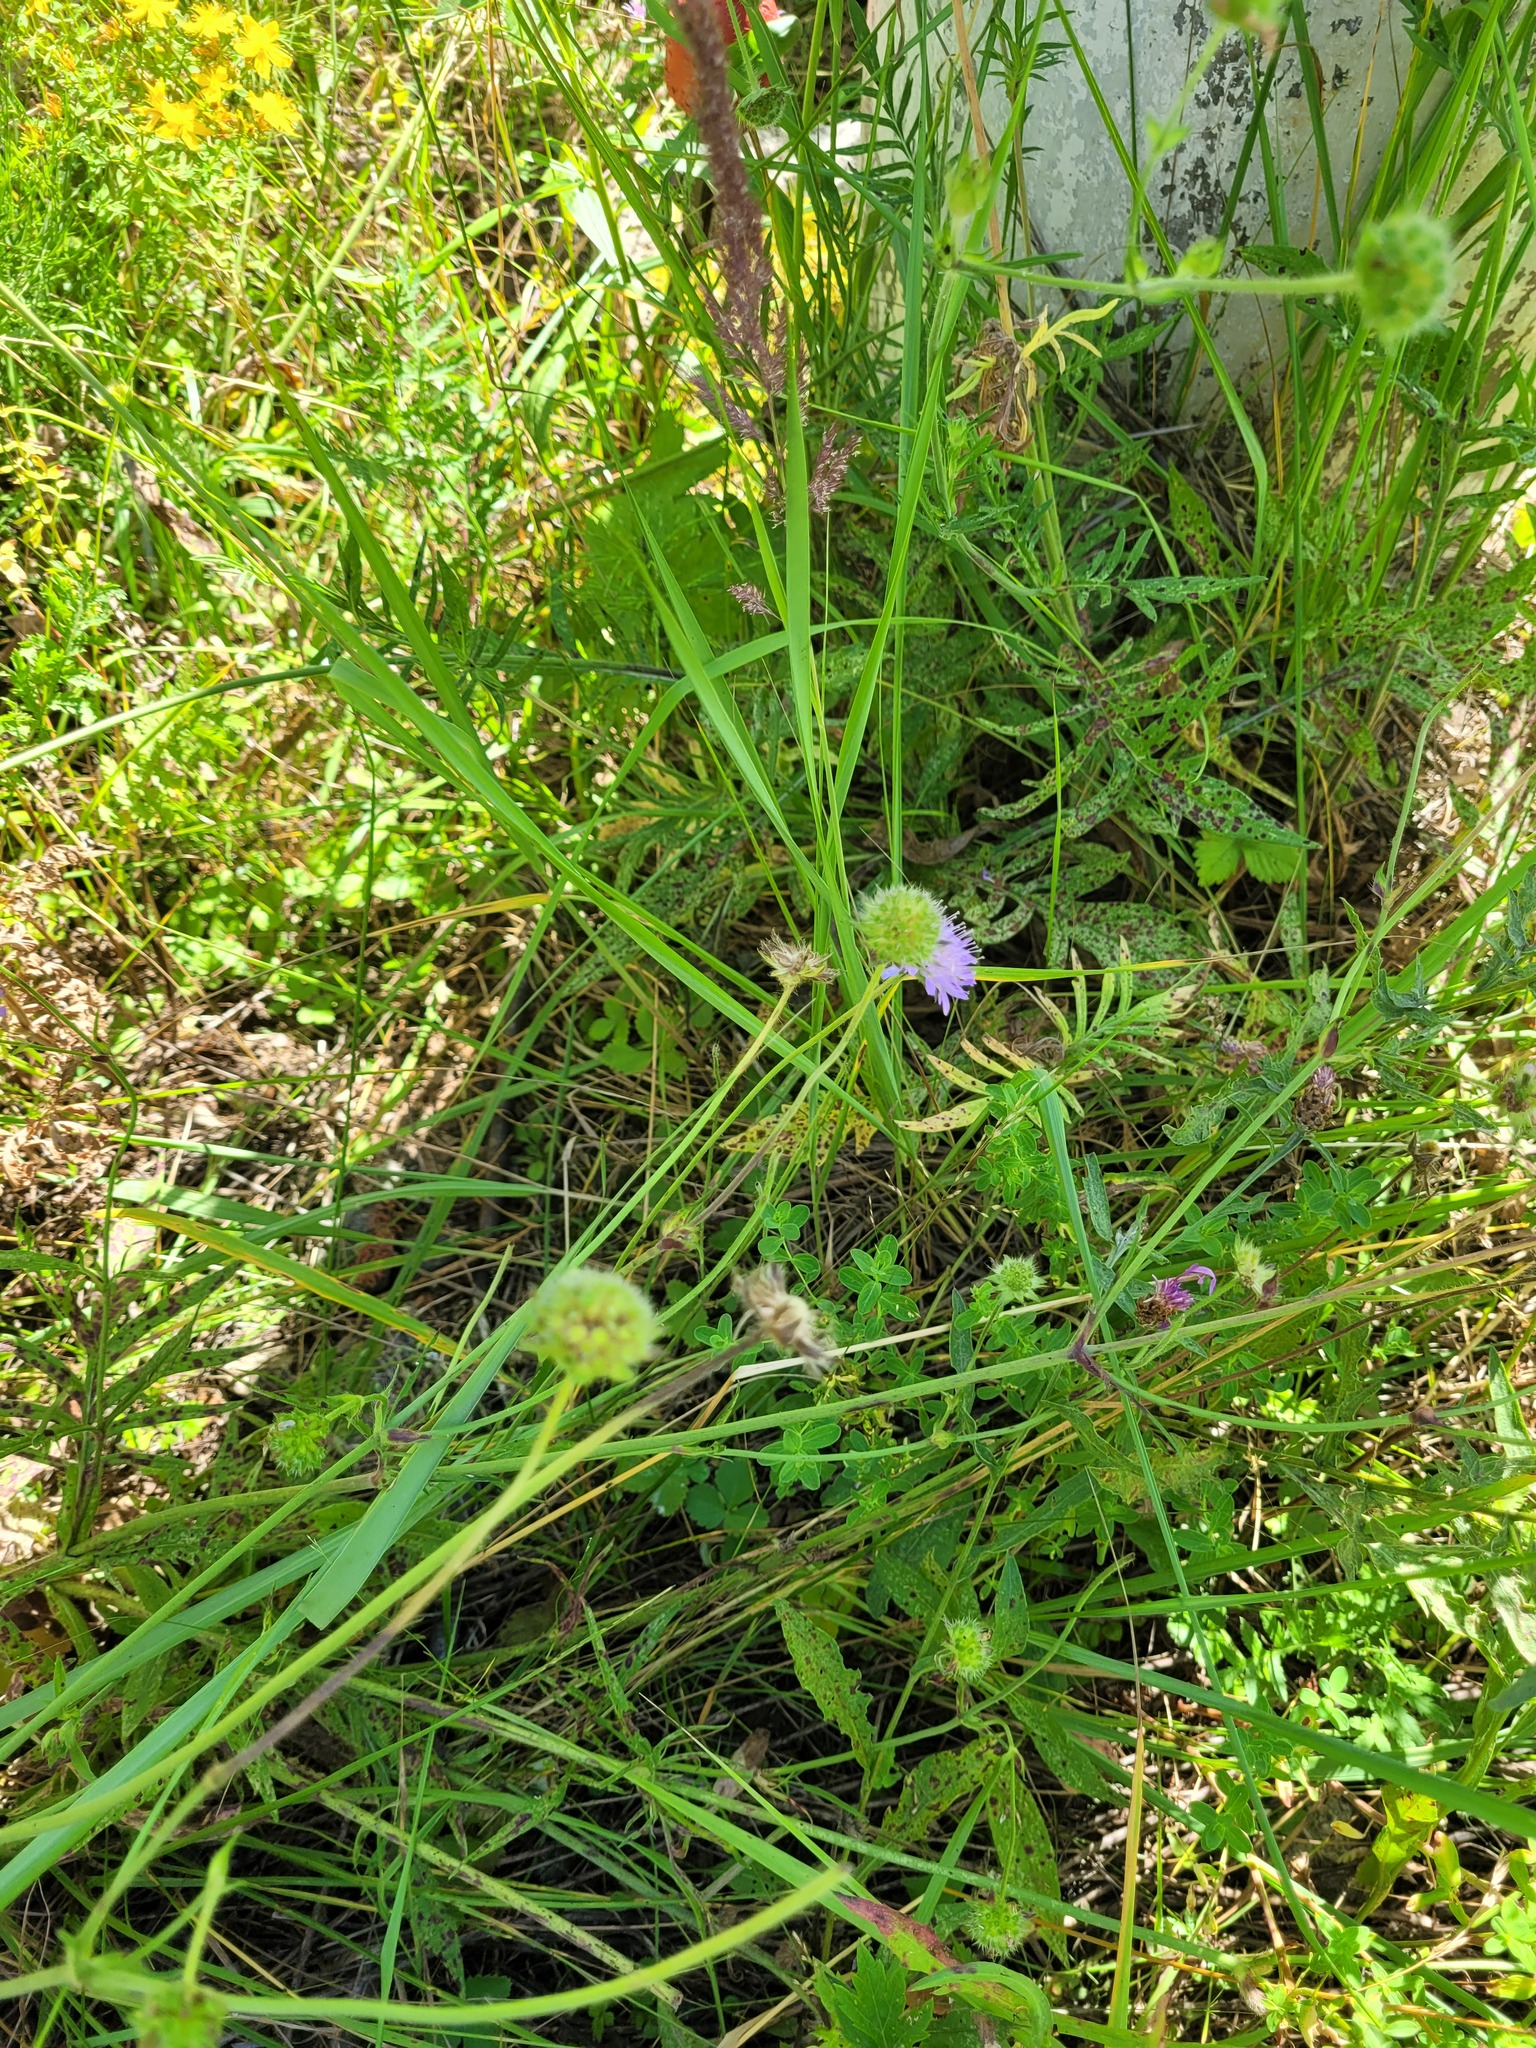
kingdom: Plantae
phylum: Tracheophyta
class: Magnoliopsida
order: Dipsacales
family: Caprifoliaceae
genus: Knautia
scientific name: Knautia arvensis
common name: Field scabiosa
